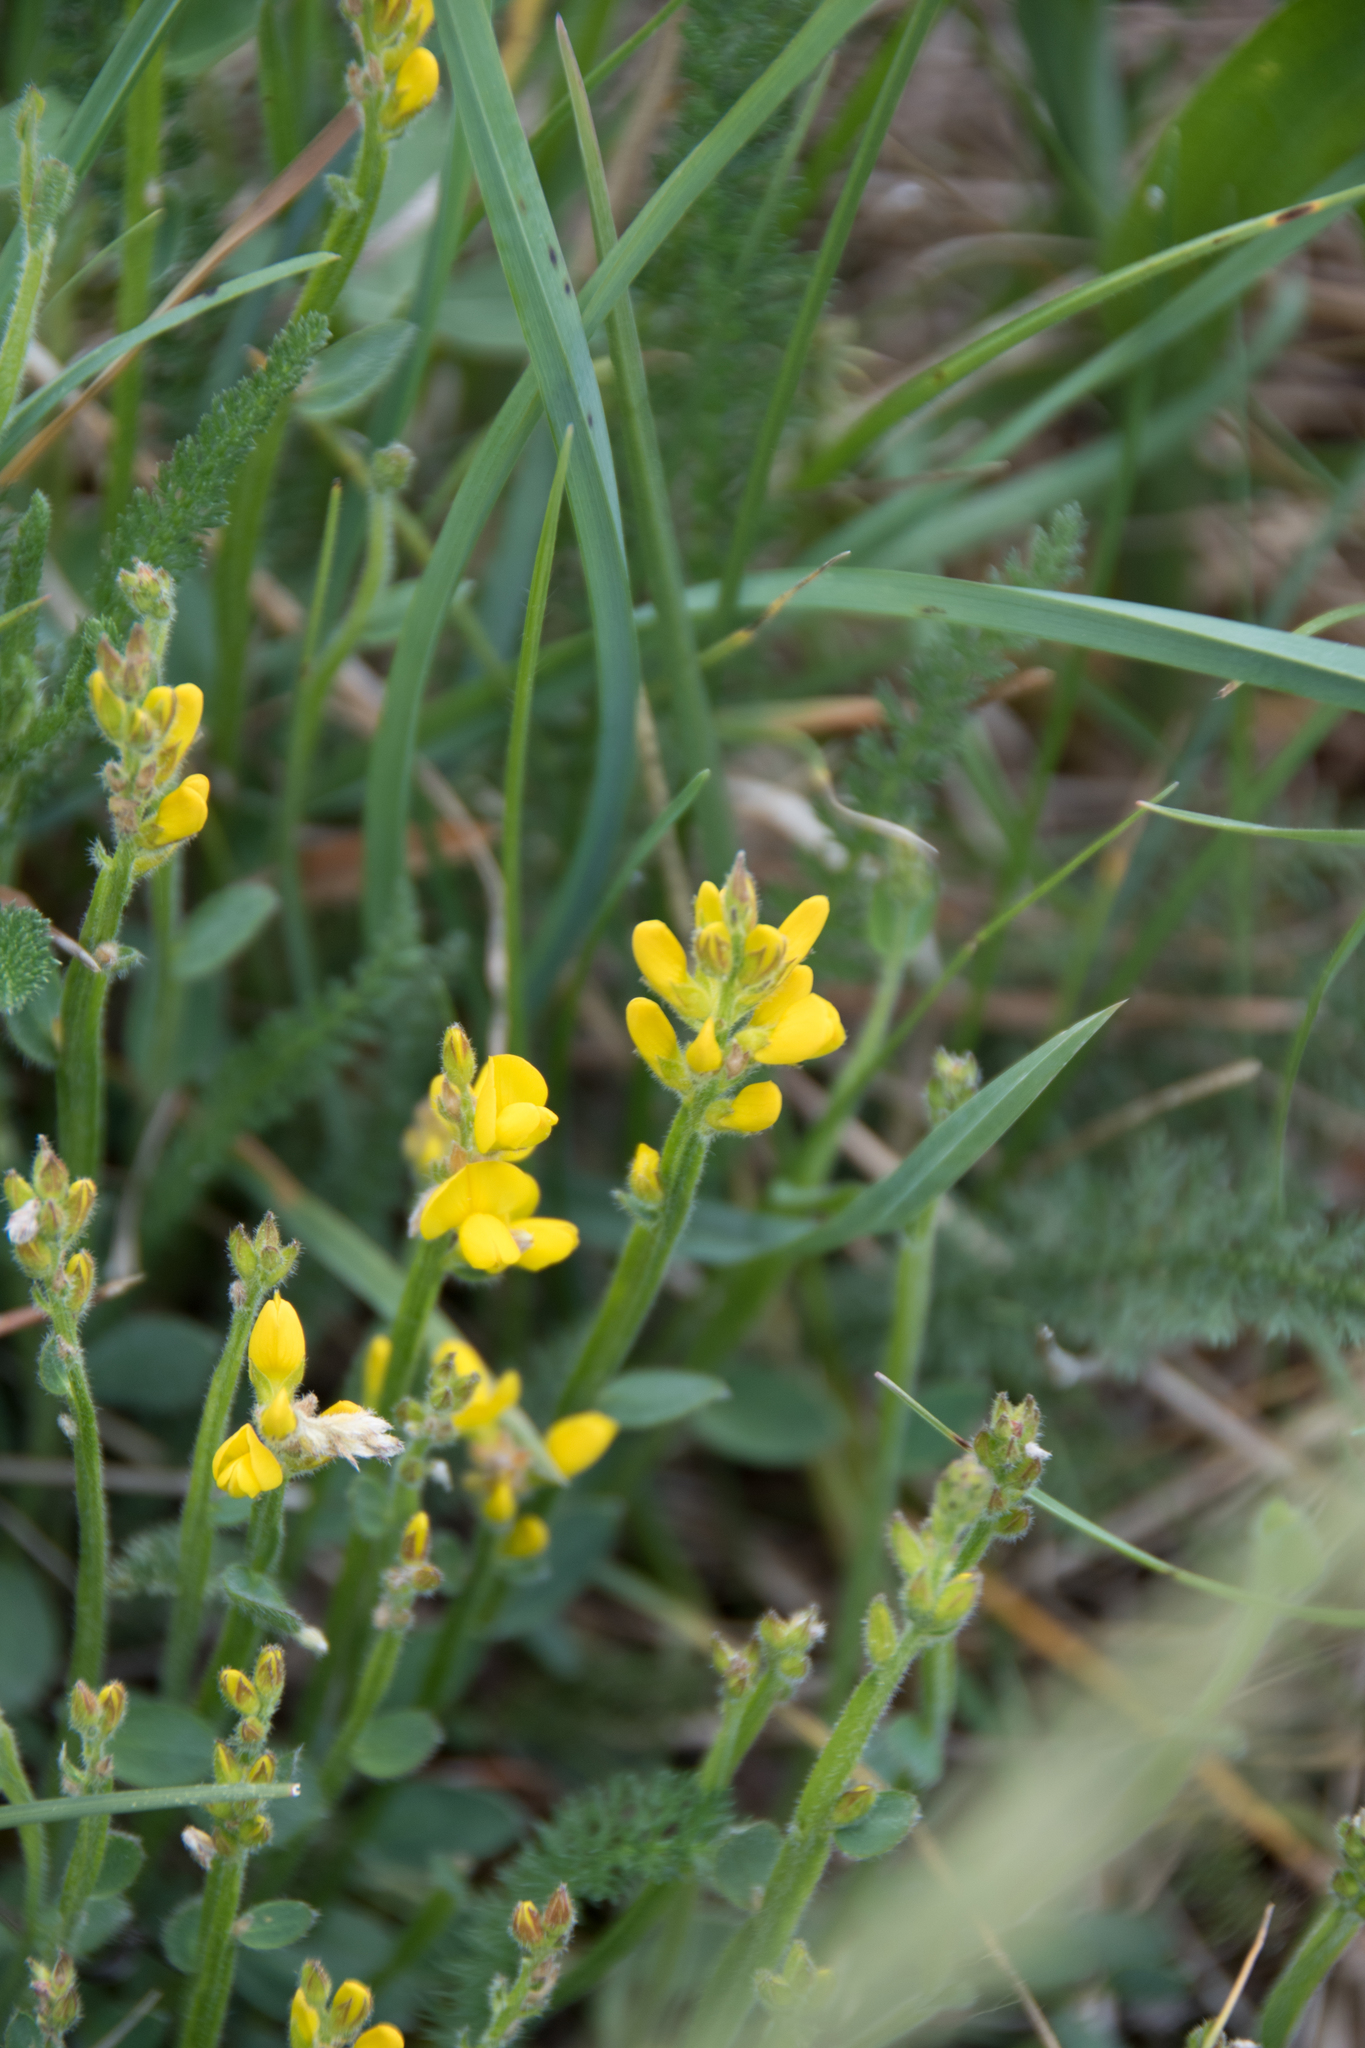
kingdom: Plantae
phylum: Tracheophyta
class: Magnoliopsida
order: Fabales
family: Fabaceae
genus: Genista
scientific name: Genista sagittalis
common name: Winged greenweed
